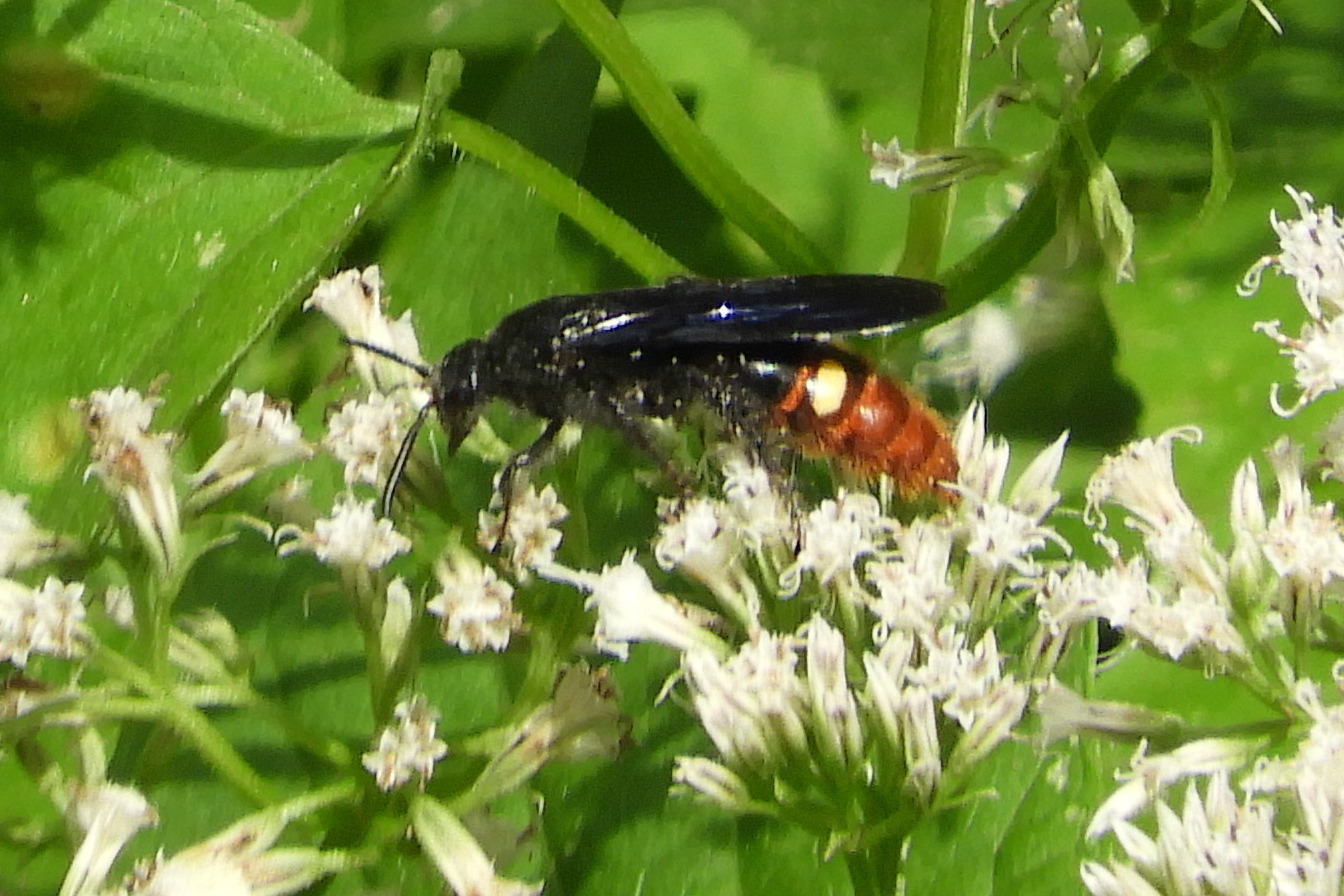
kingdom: Animalia
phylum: Arthropoda
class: Insecta
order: Hymenoptera
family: Scoliidae
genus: Scolia
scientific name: Scolia dubia
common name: Blue-winged scoliid wasp
